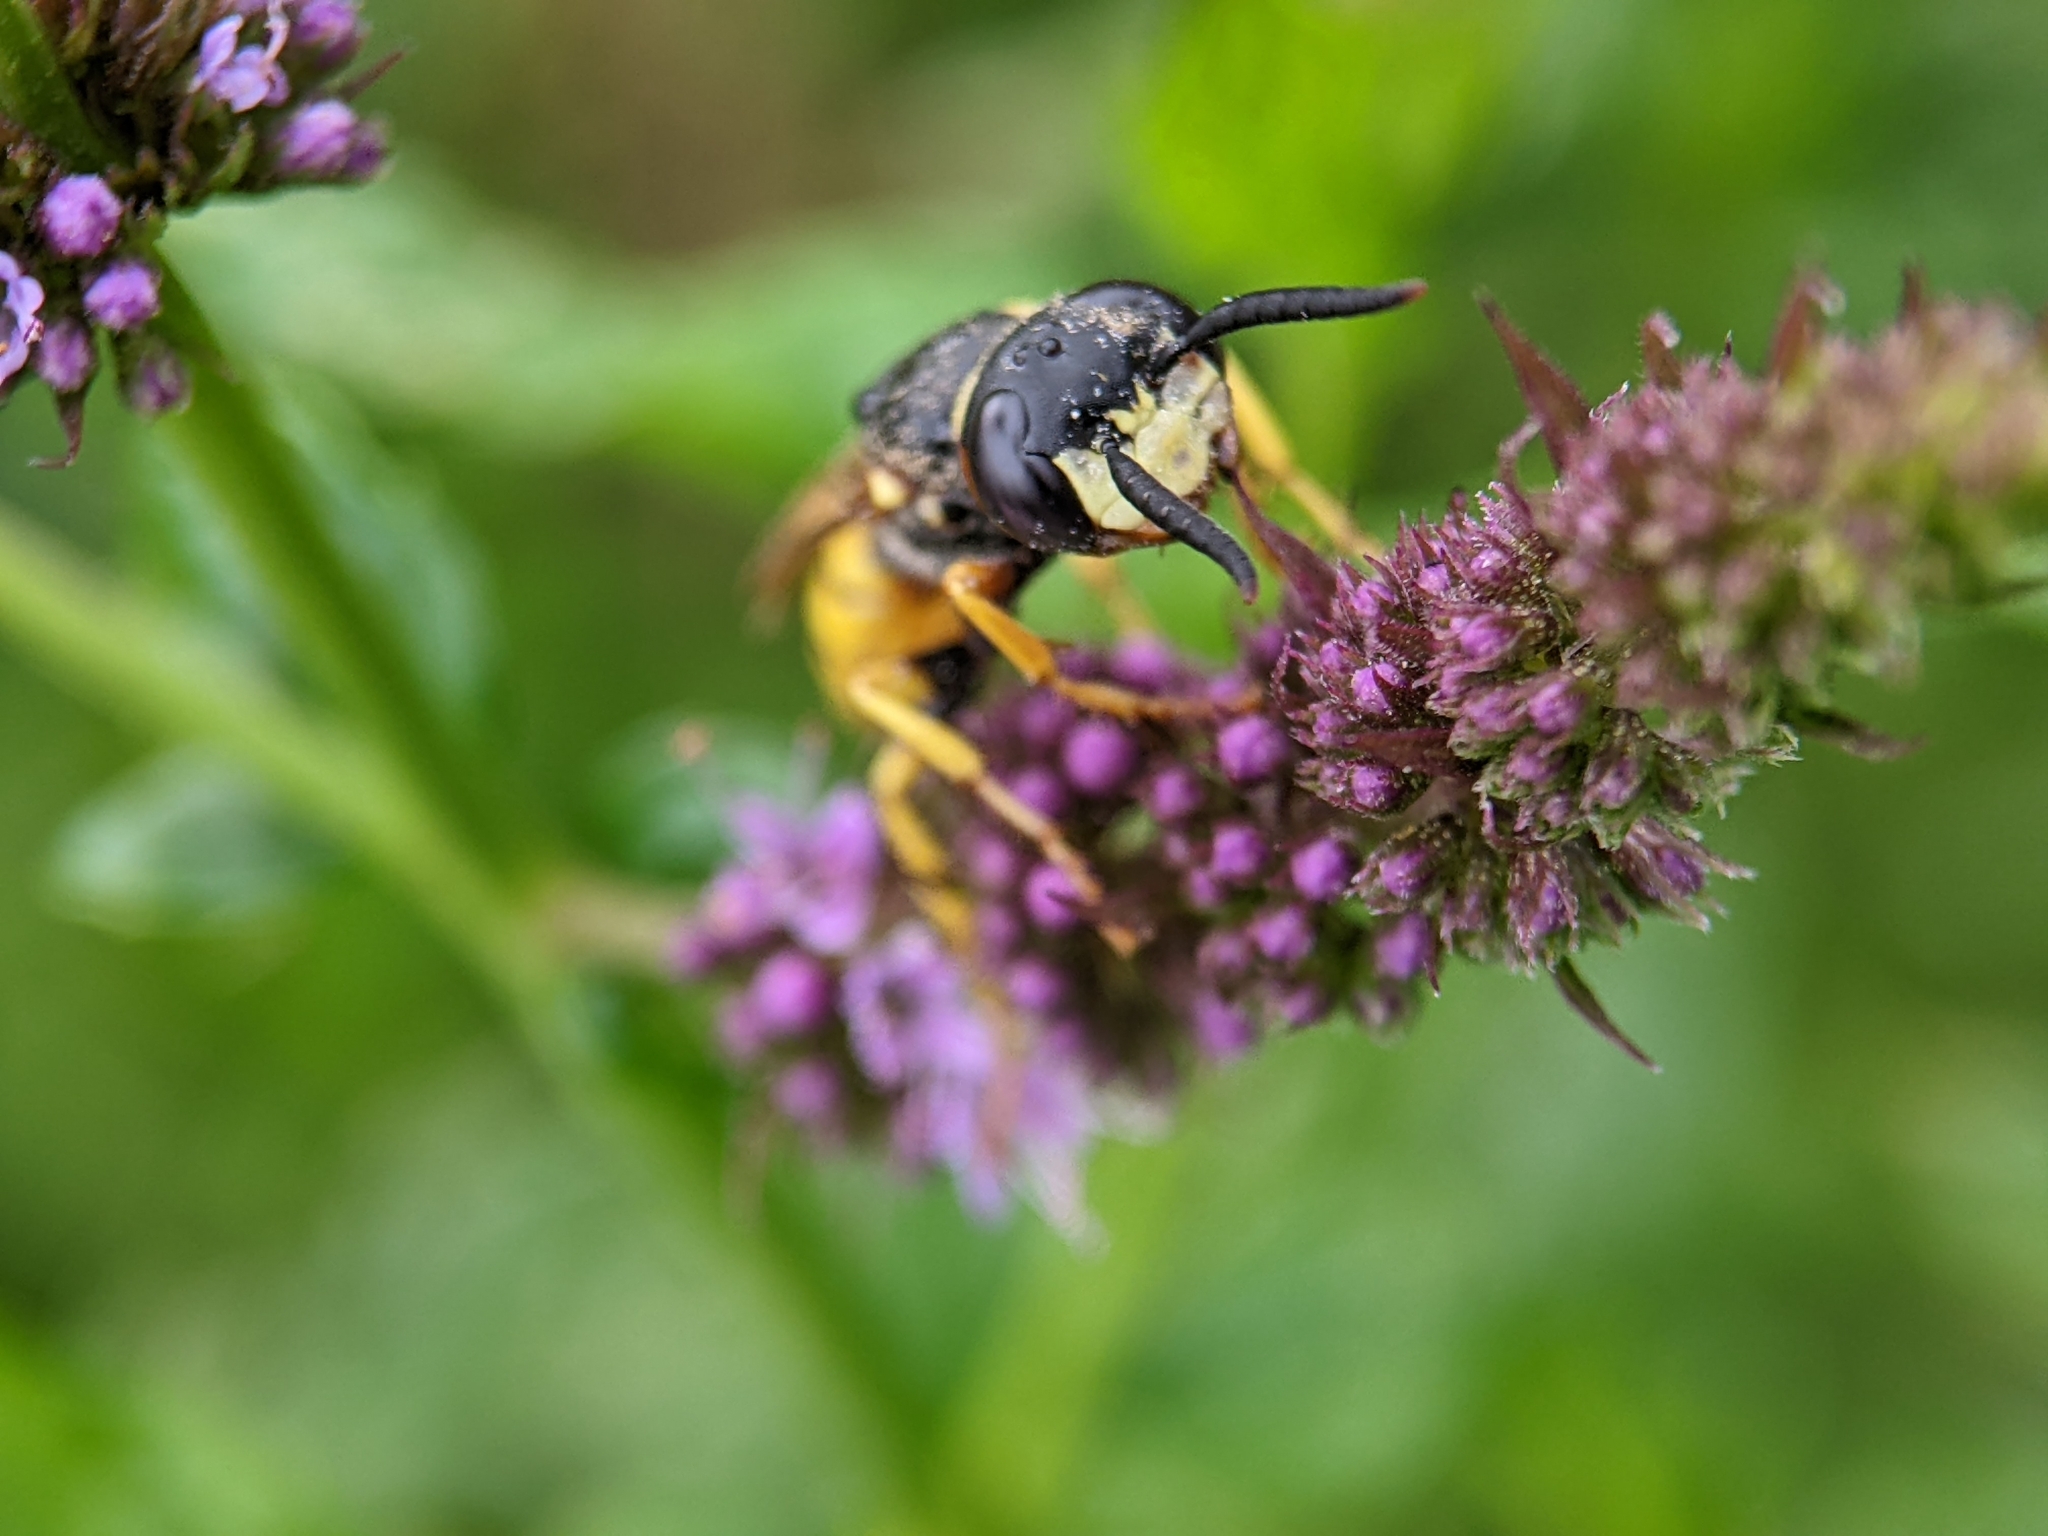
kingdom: Animalia
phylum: Arthropoda
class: Insecta
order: Hymenoptera
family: Crabronidae
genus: Philanthus
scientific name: Philanthus triangulum
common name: Bee wolf
